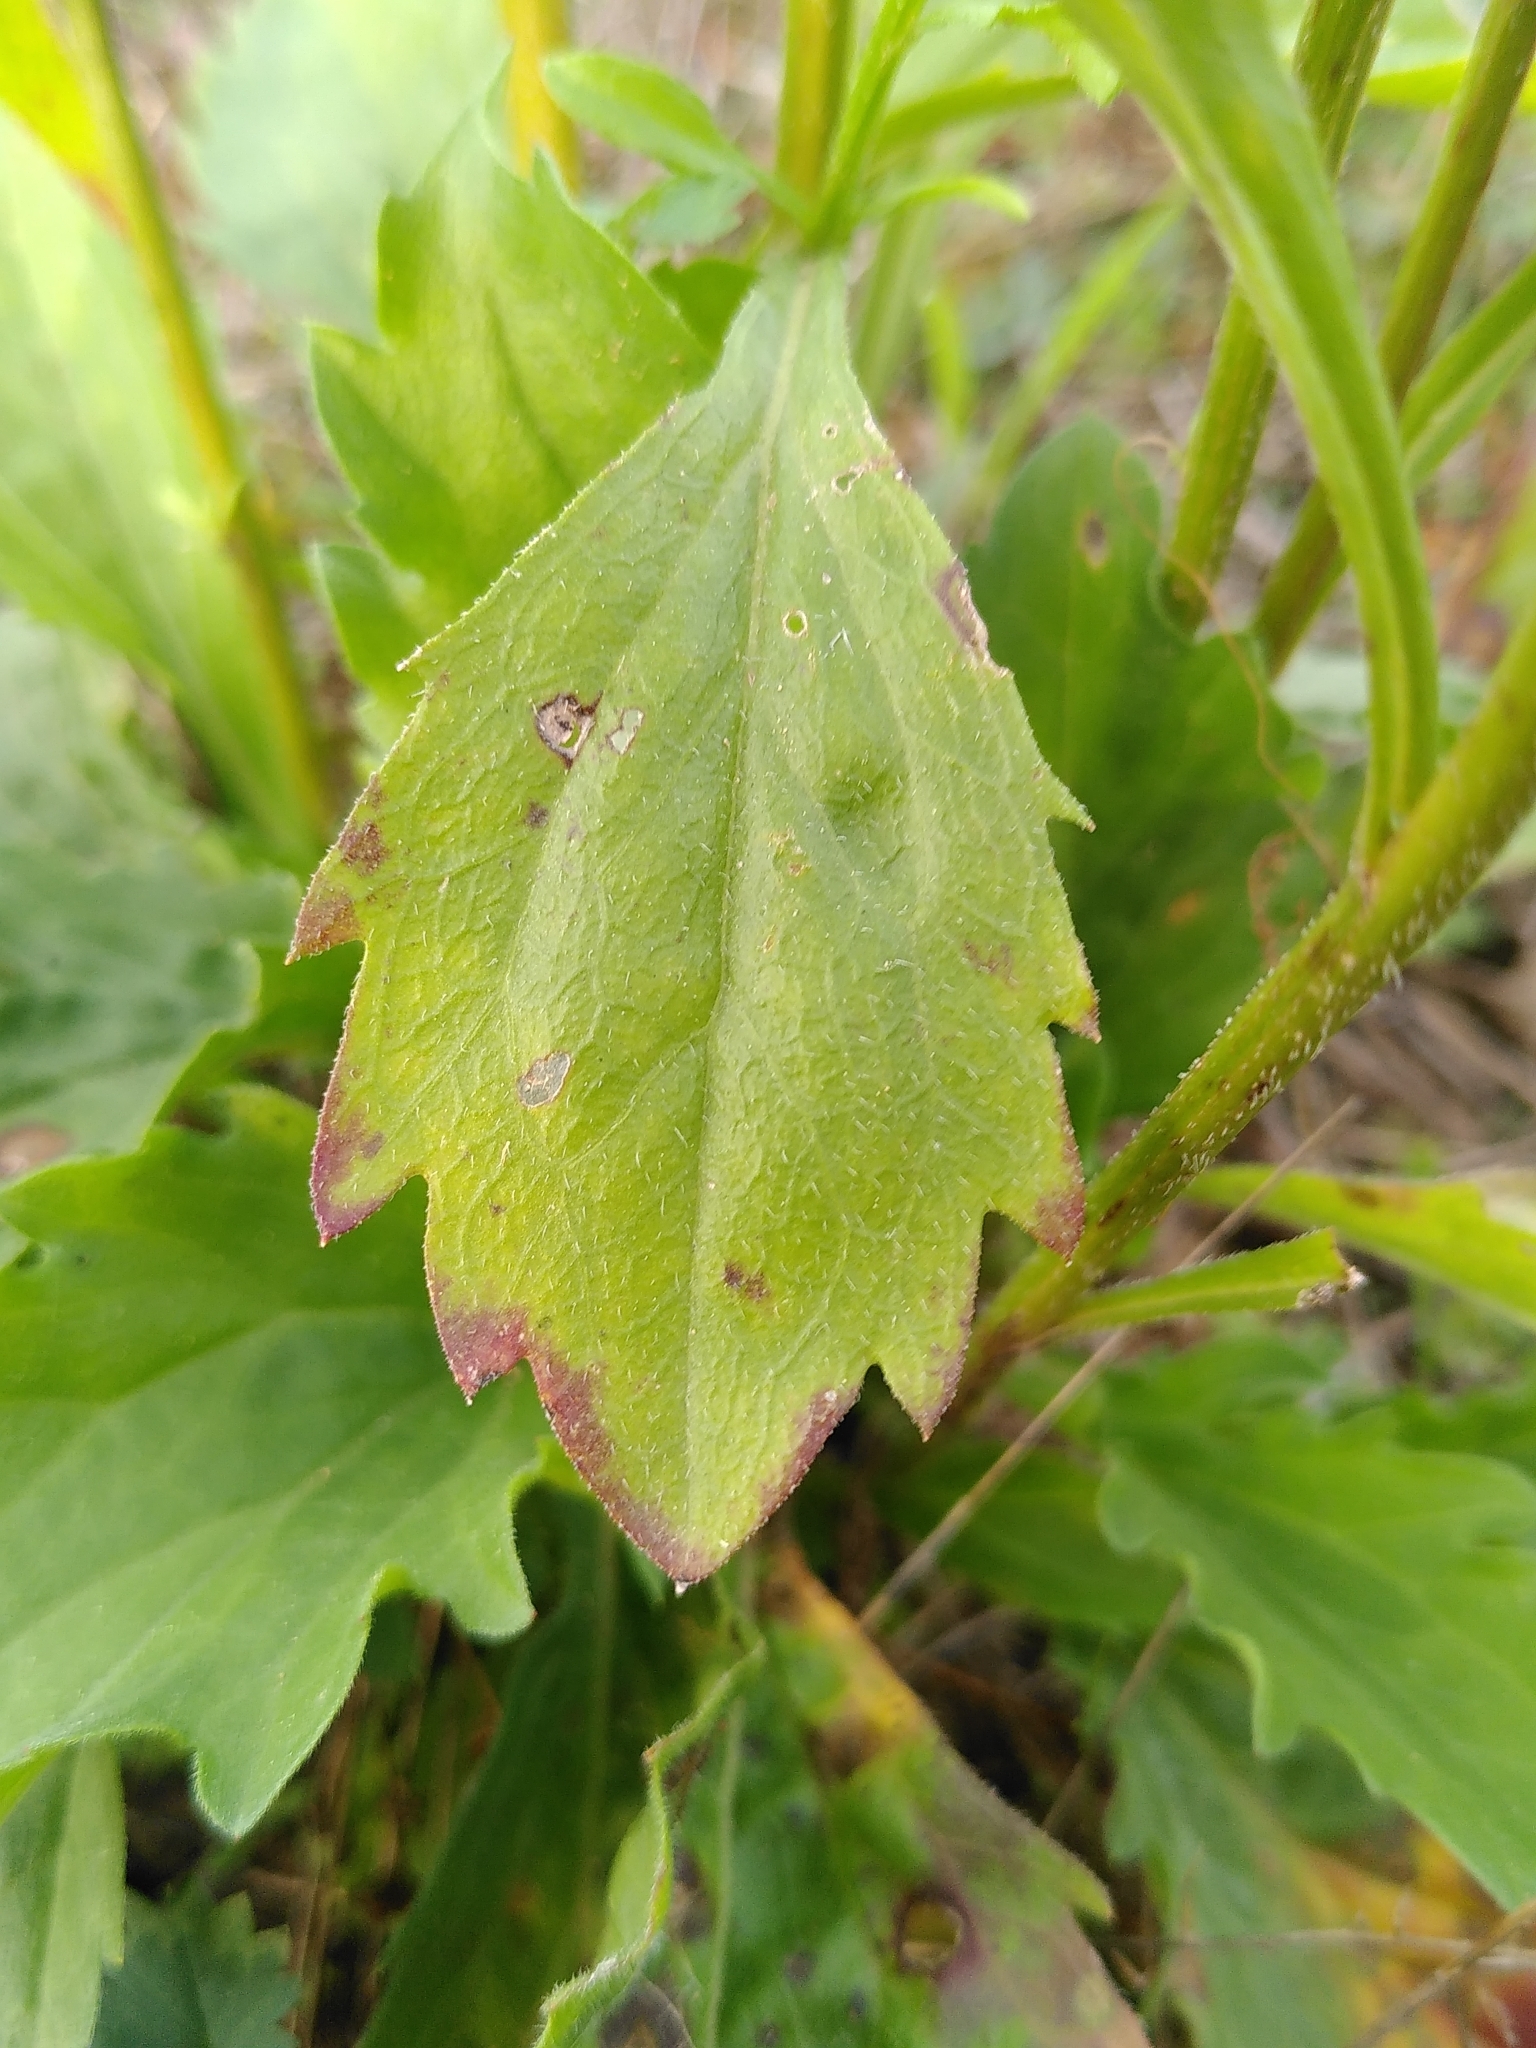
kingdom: Plantae
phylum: Tracheophyta
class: Magnoliopsida
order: Asterales
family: Asteraceae
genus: Erigeron
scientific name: Erigeron annuus
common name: Tall fleabane
